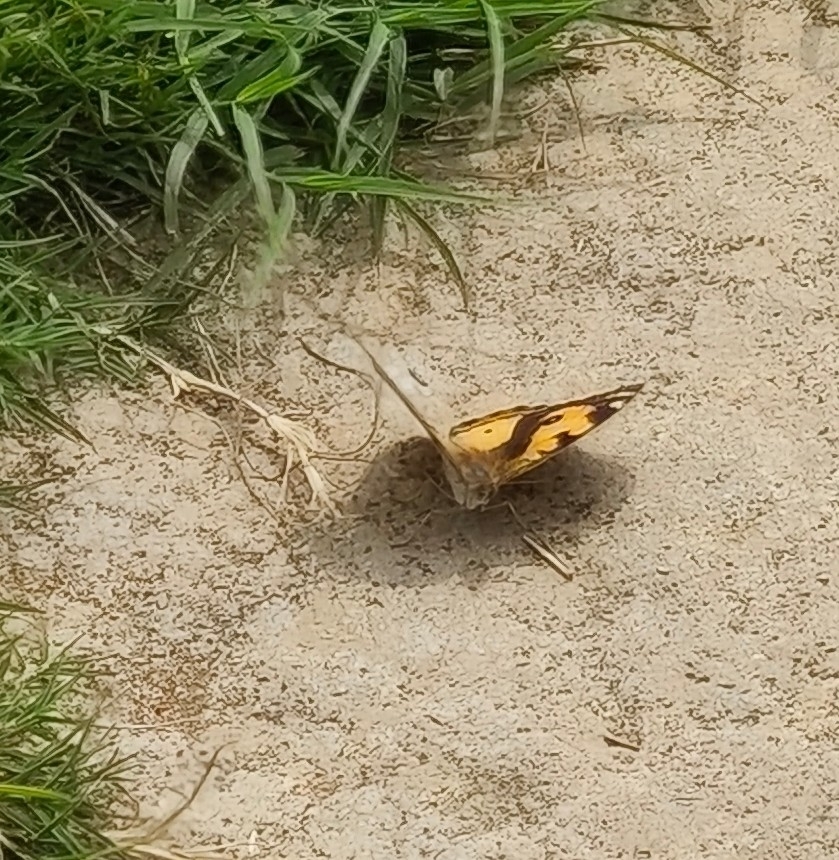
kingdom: Animalia
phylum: Arthropoda
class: Insecta
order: Lepidoptera
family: Nymphalidae
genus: Junonia
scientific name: Junonia hierta
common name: Yellow pansy
